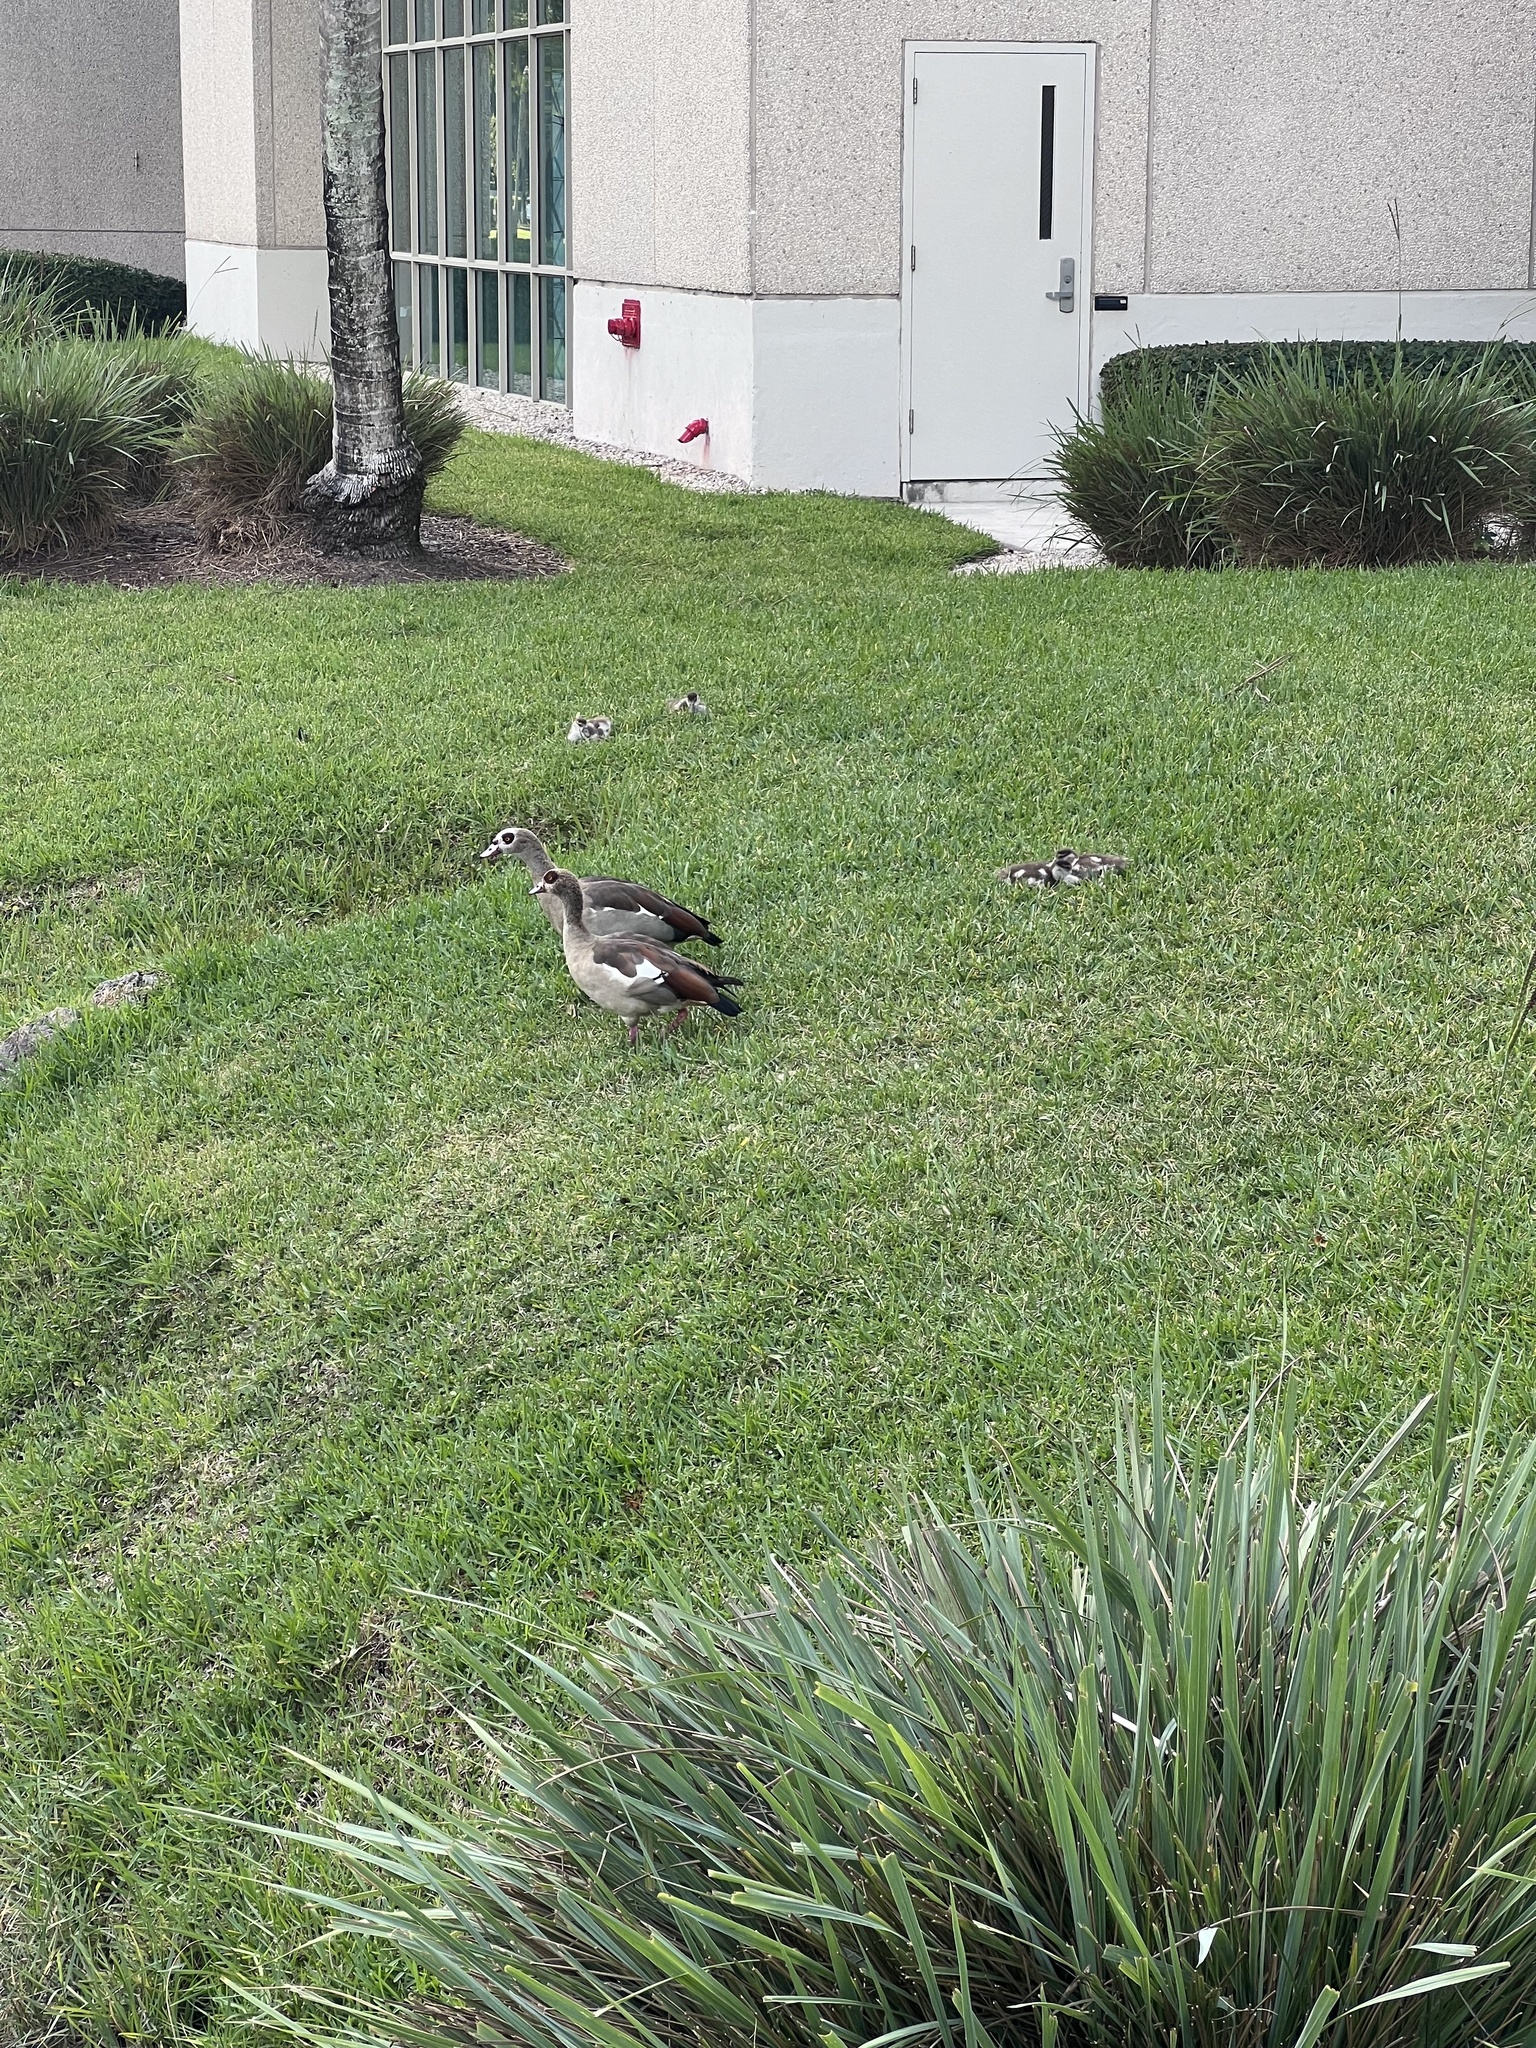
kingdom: Animalia
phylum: Chordata
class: Aves
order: Anseriformes
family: Anatidae
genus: Alopochen
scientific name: Alopochen aegyptiaca
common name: Egyptian goose
